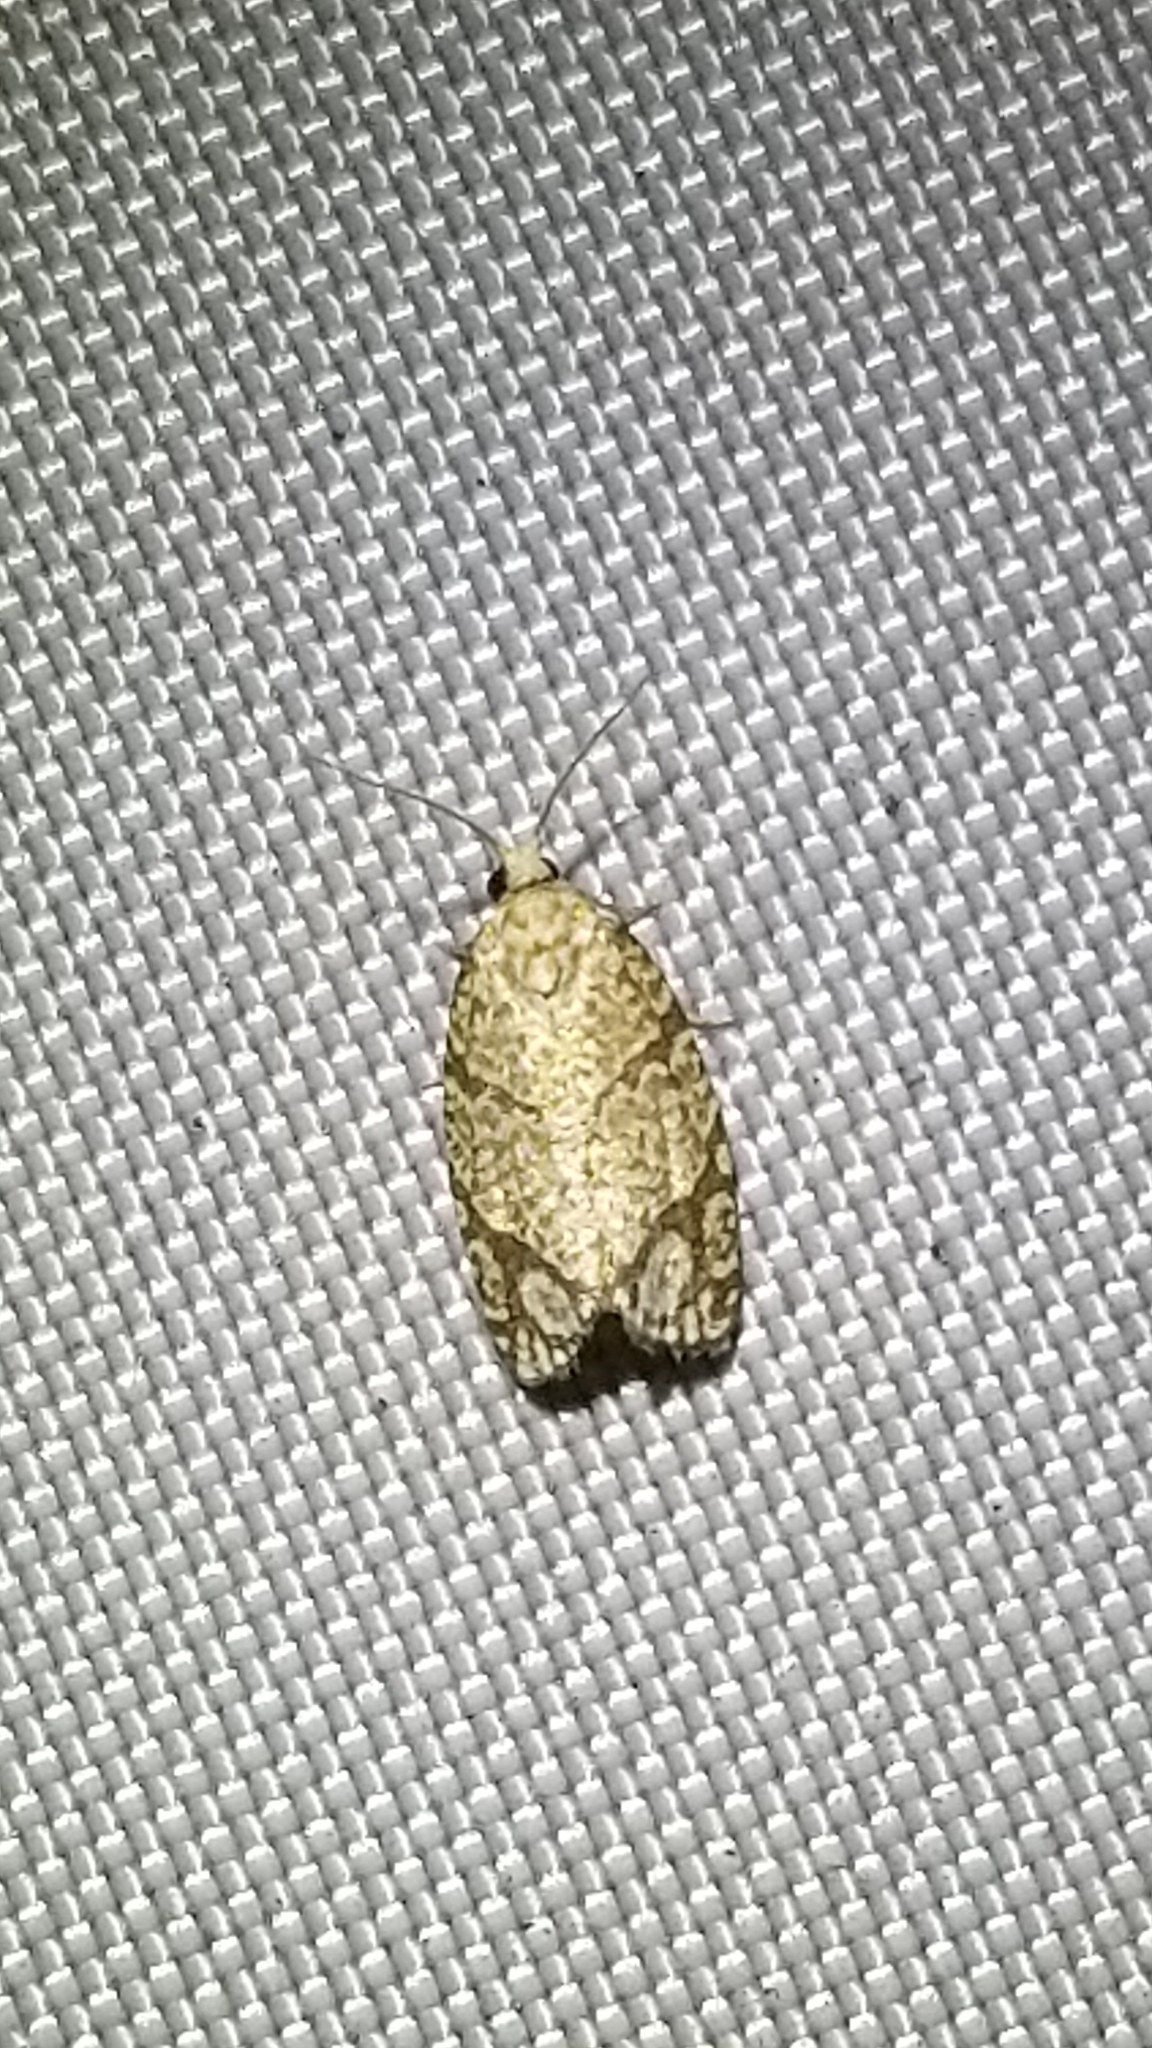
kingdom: Animalia
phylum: Arthropoda
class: Insecta
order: Lepidoptera
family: Tortricidae
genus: Argyrotaenia
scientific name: Argyrotaenia quercifoliana
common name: Yellow-winged oak leafroller moth
